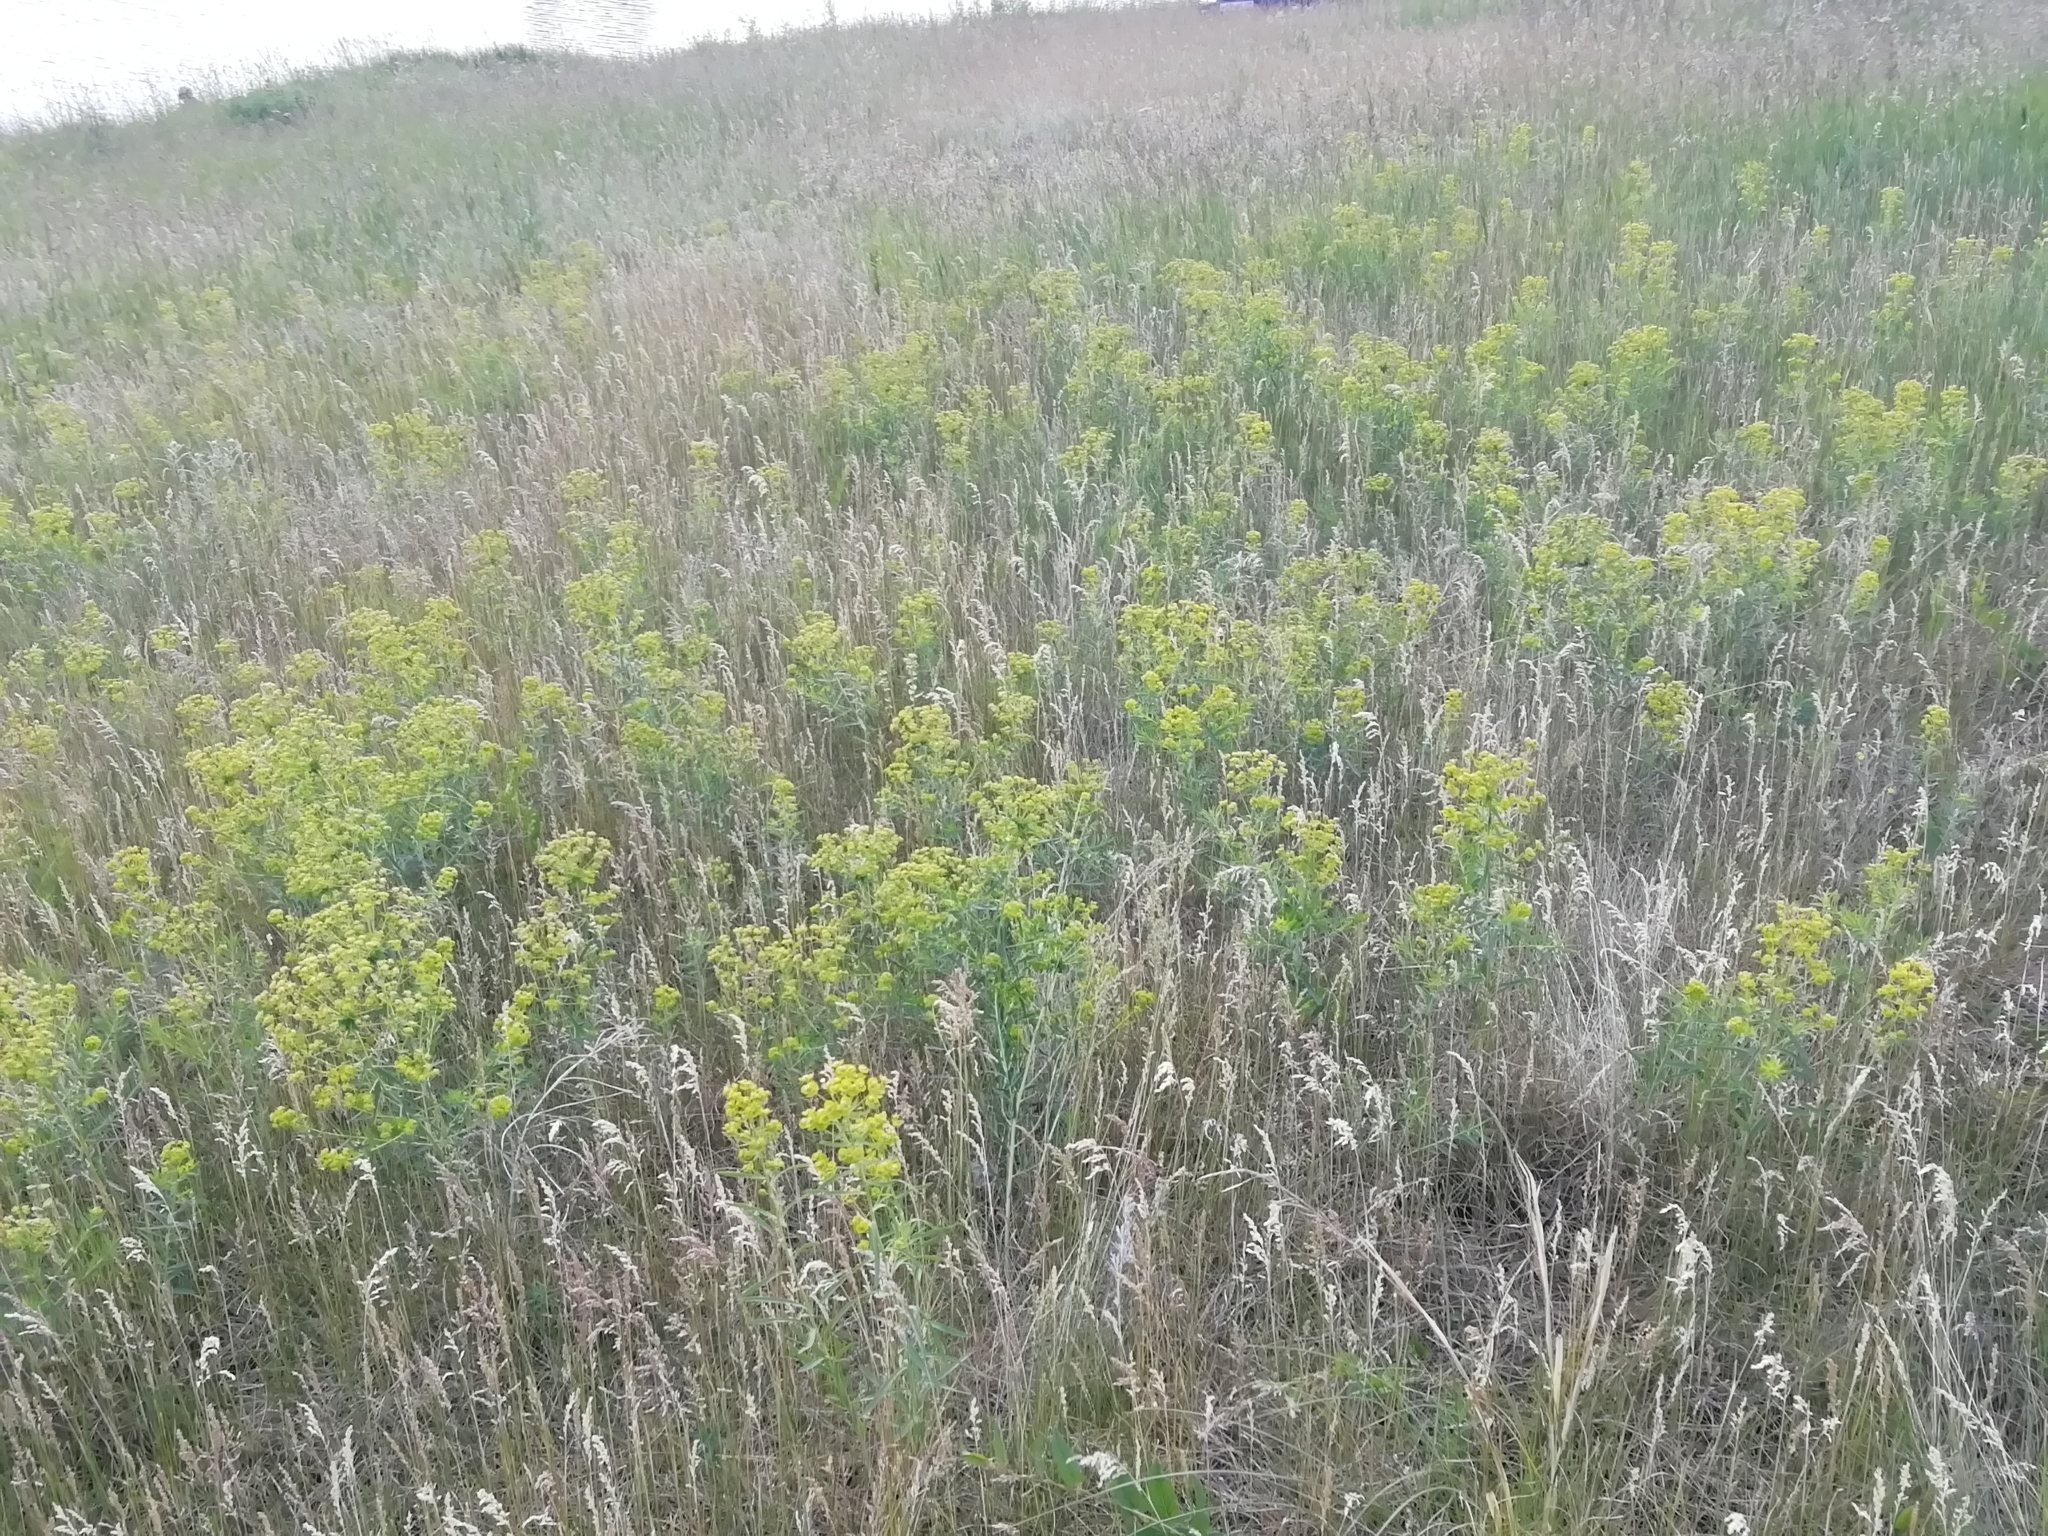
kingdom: Plantae
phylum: Tracheophyta
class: Magnoliopsida
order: Malpighiales
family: Euphorbiaceae
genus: Euphorbia
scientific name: Euphorbia virgata
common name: Leafy spurge
